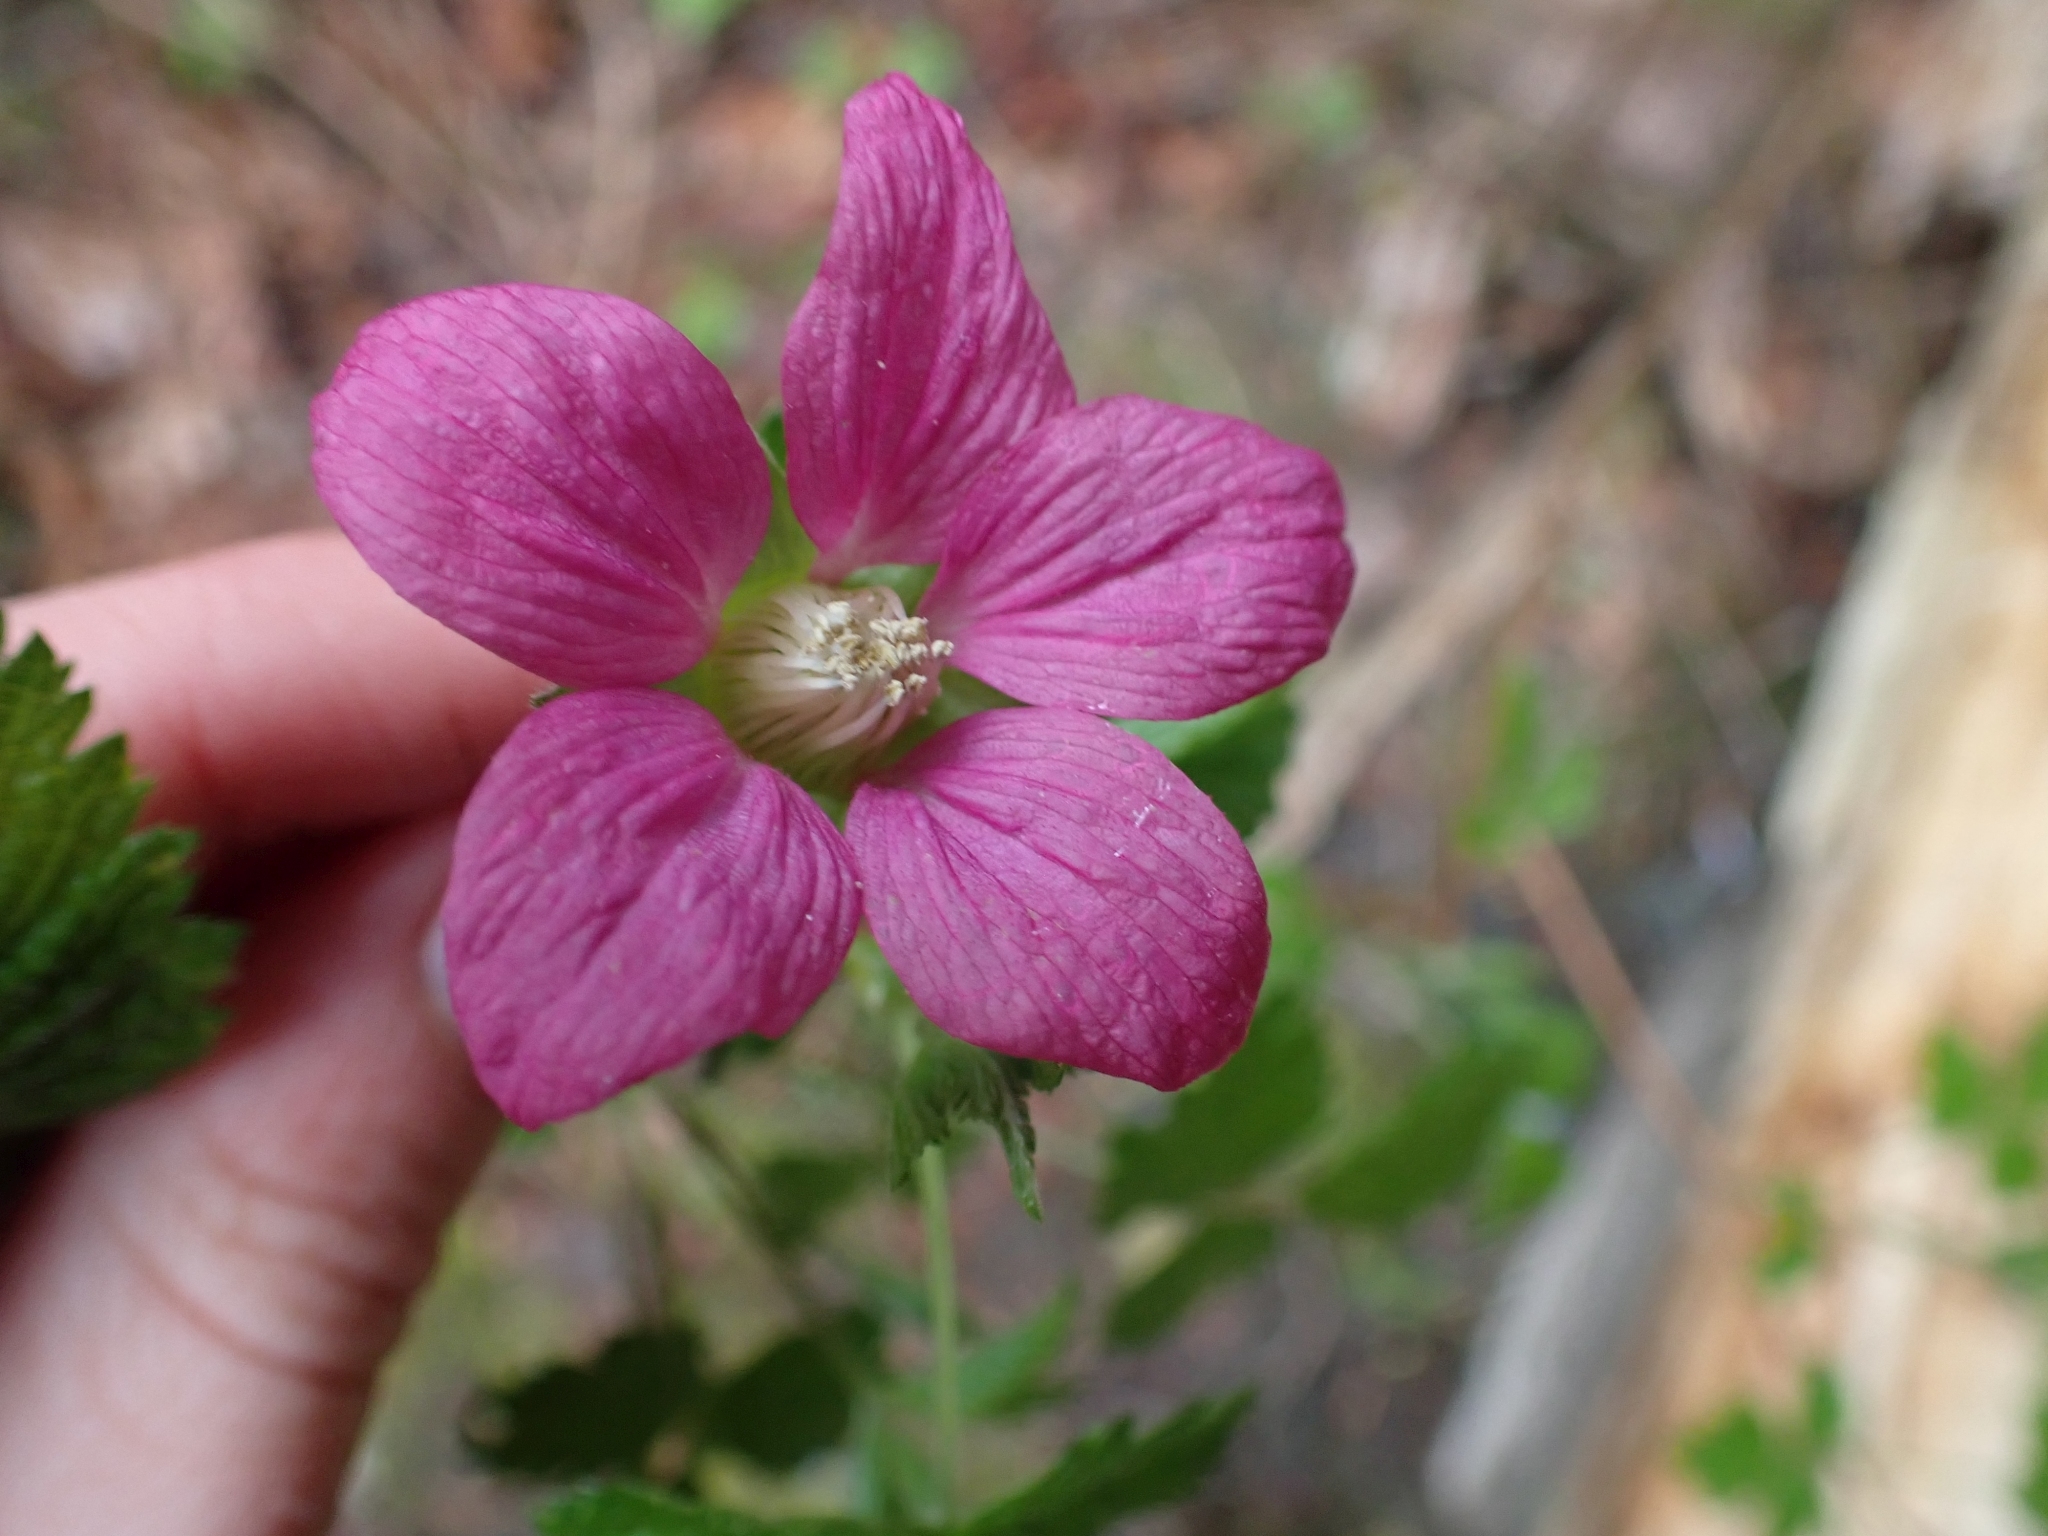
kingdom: Plantae
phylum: Tracheophyta
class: Magnoliopsida
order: Rosales
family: Rosaceae
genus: Rubus
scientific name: Rubus spectabilis
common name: Salmonberry
